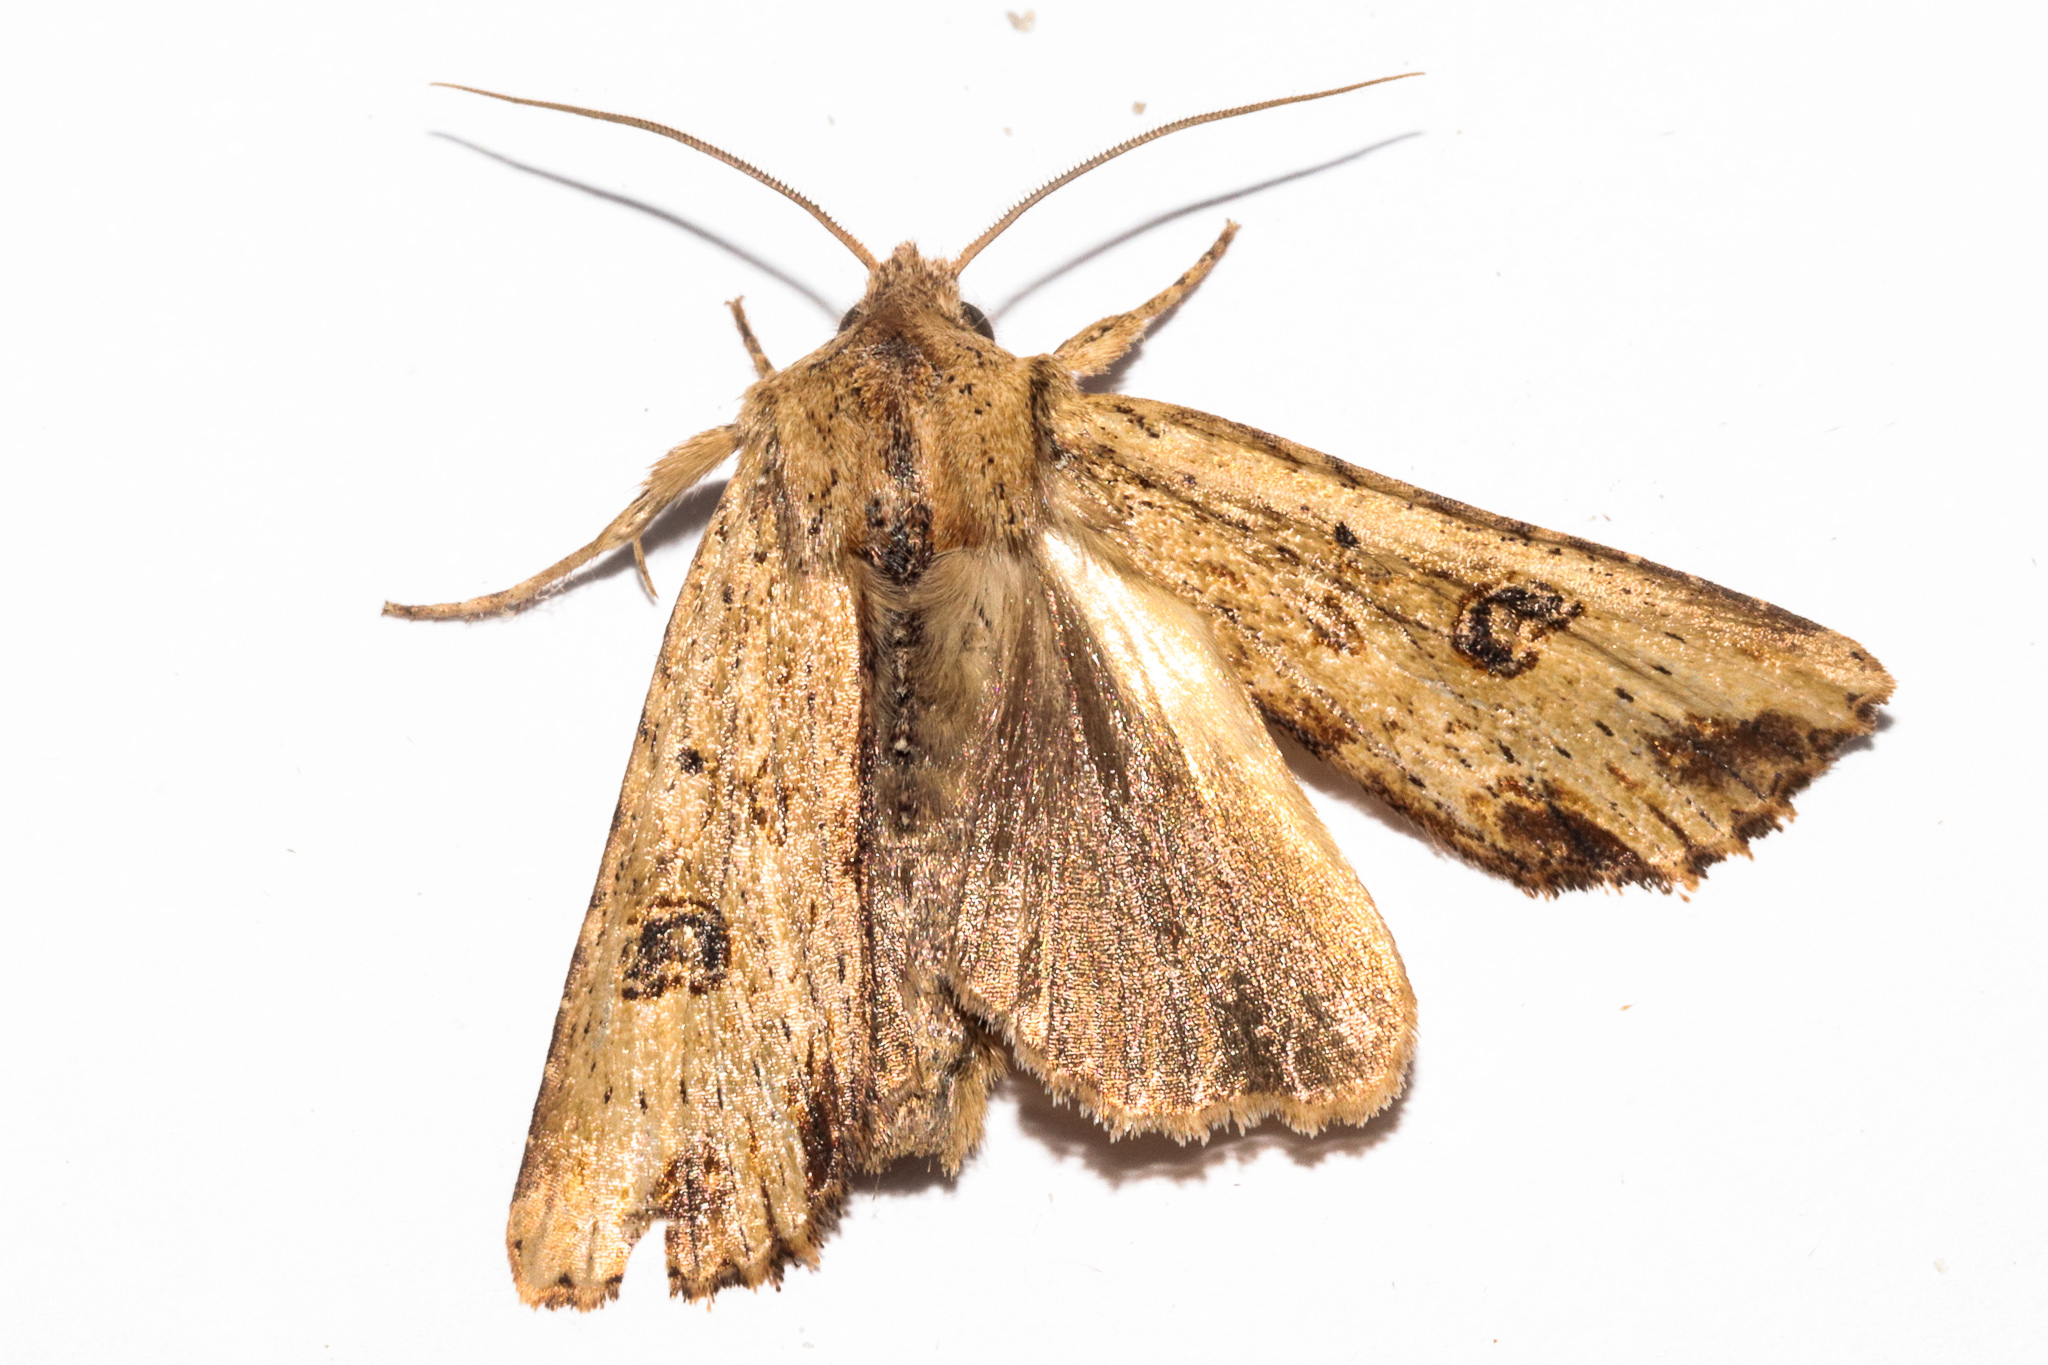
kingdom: Animalia
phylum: Arthropoda
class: Insecta
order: Lepidoptera
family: Noctuidae
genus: Ichneutica
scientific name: Ichneutica
